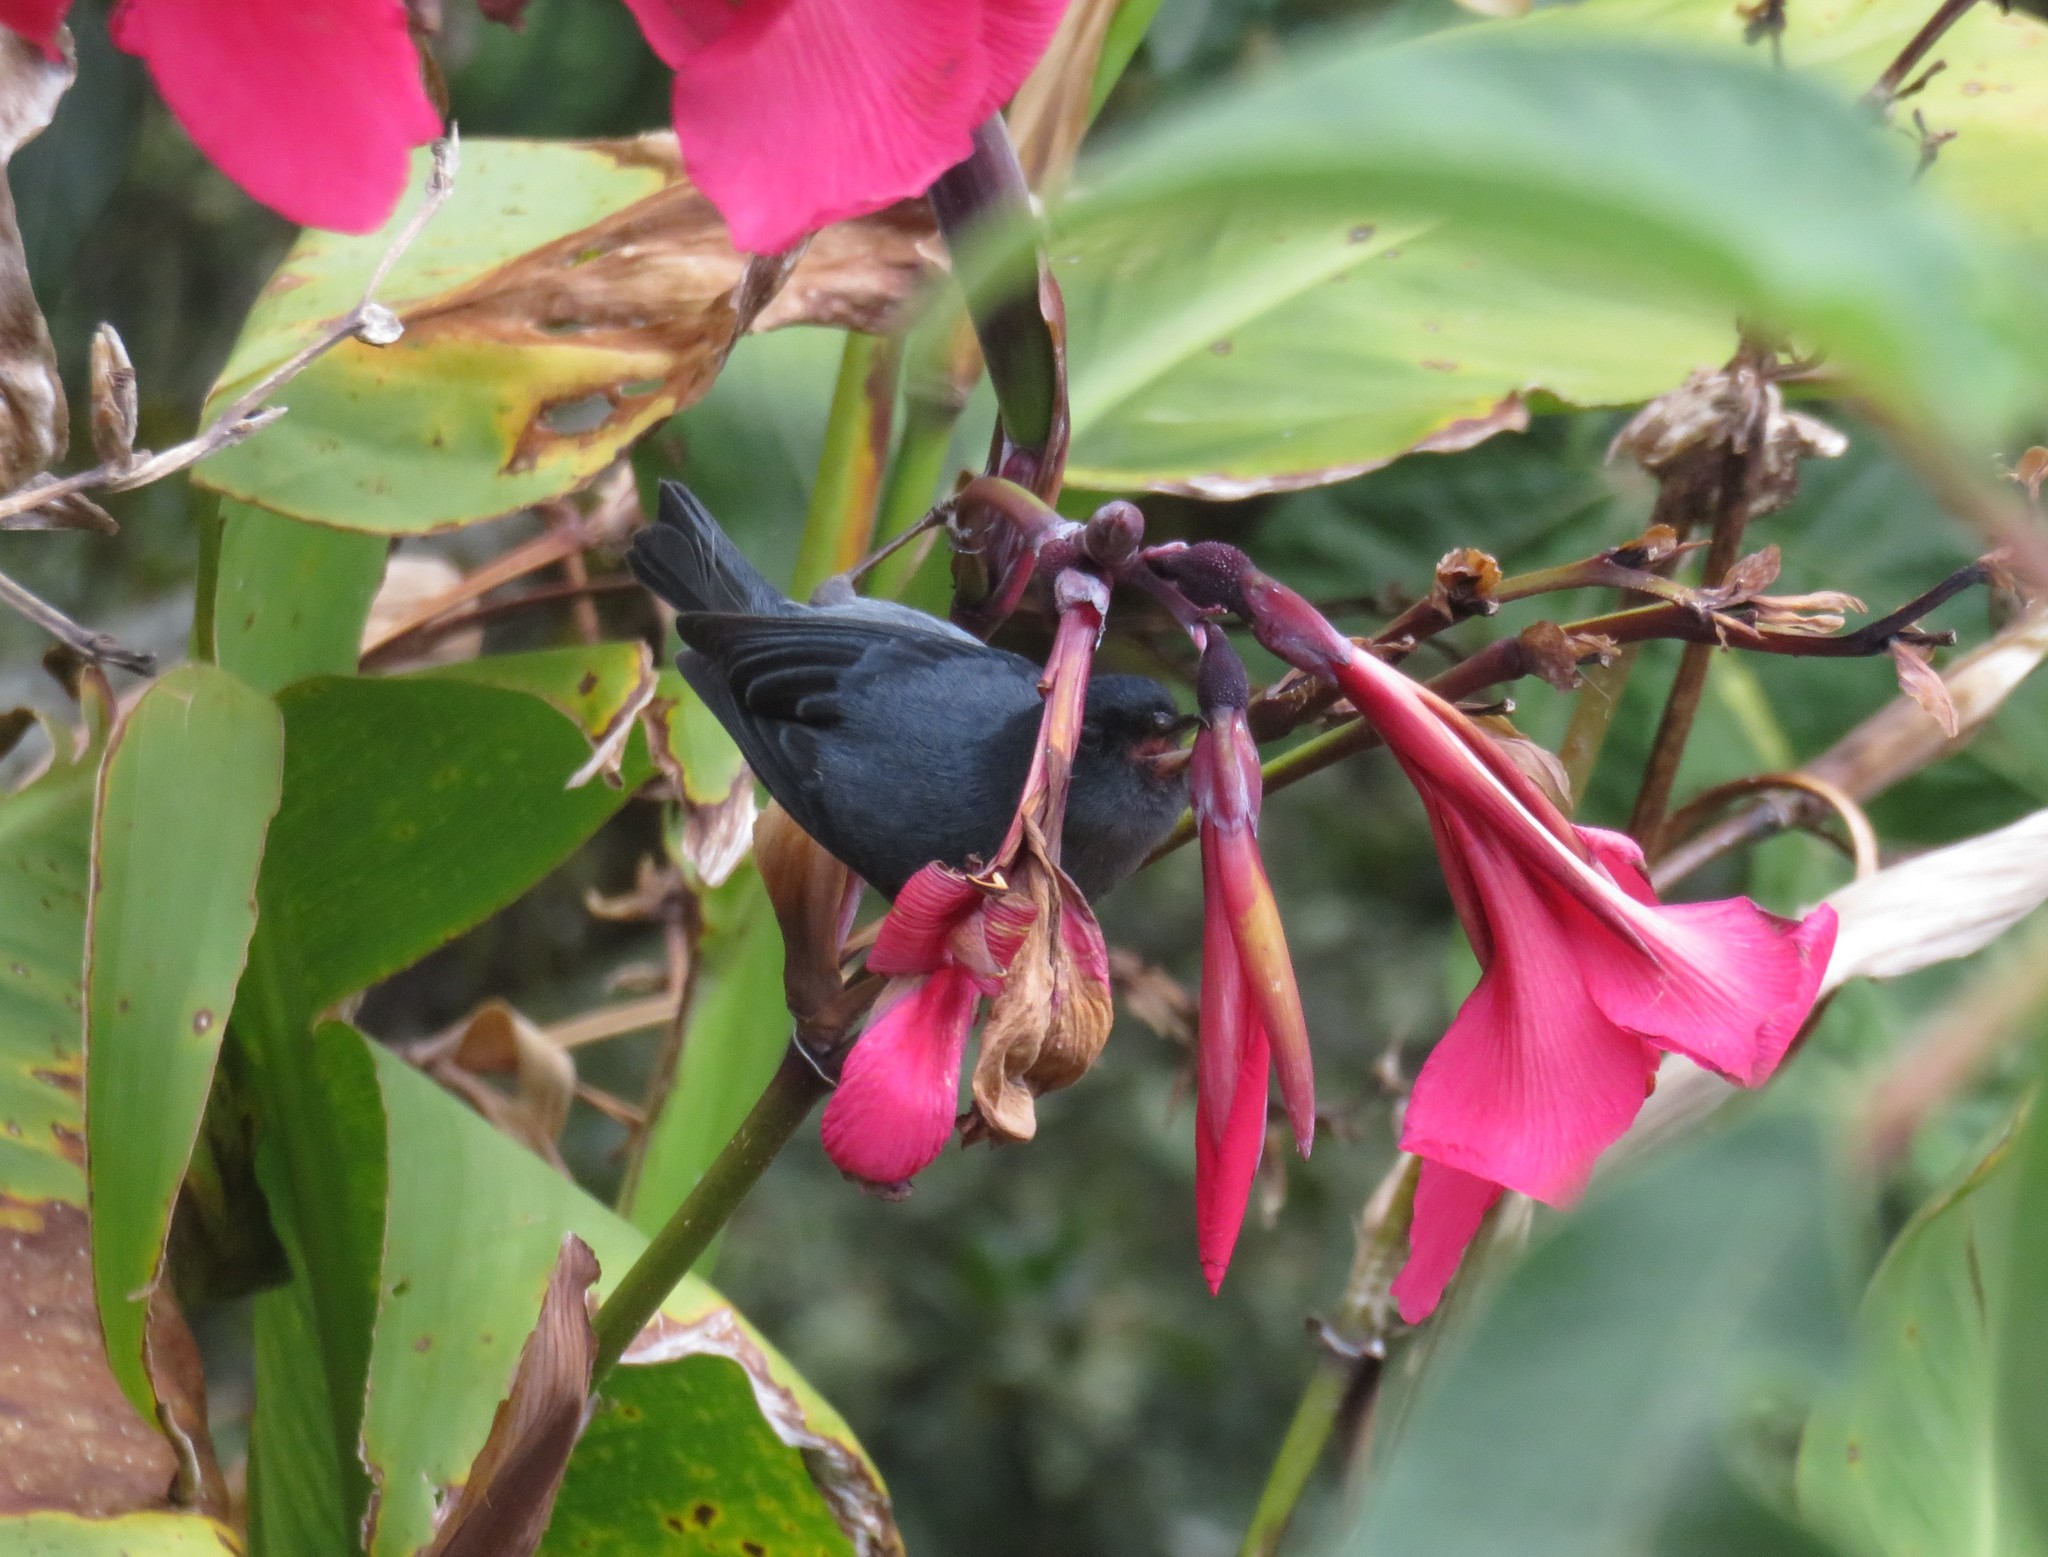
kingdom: Animalia
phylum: Chordata
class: Aves
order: Passeriformes
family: Thraupidae
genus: Diglossa
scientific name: Diglossa plumbea
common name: Slaty flowerpiercer
